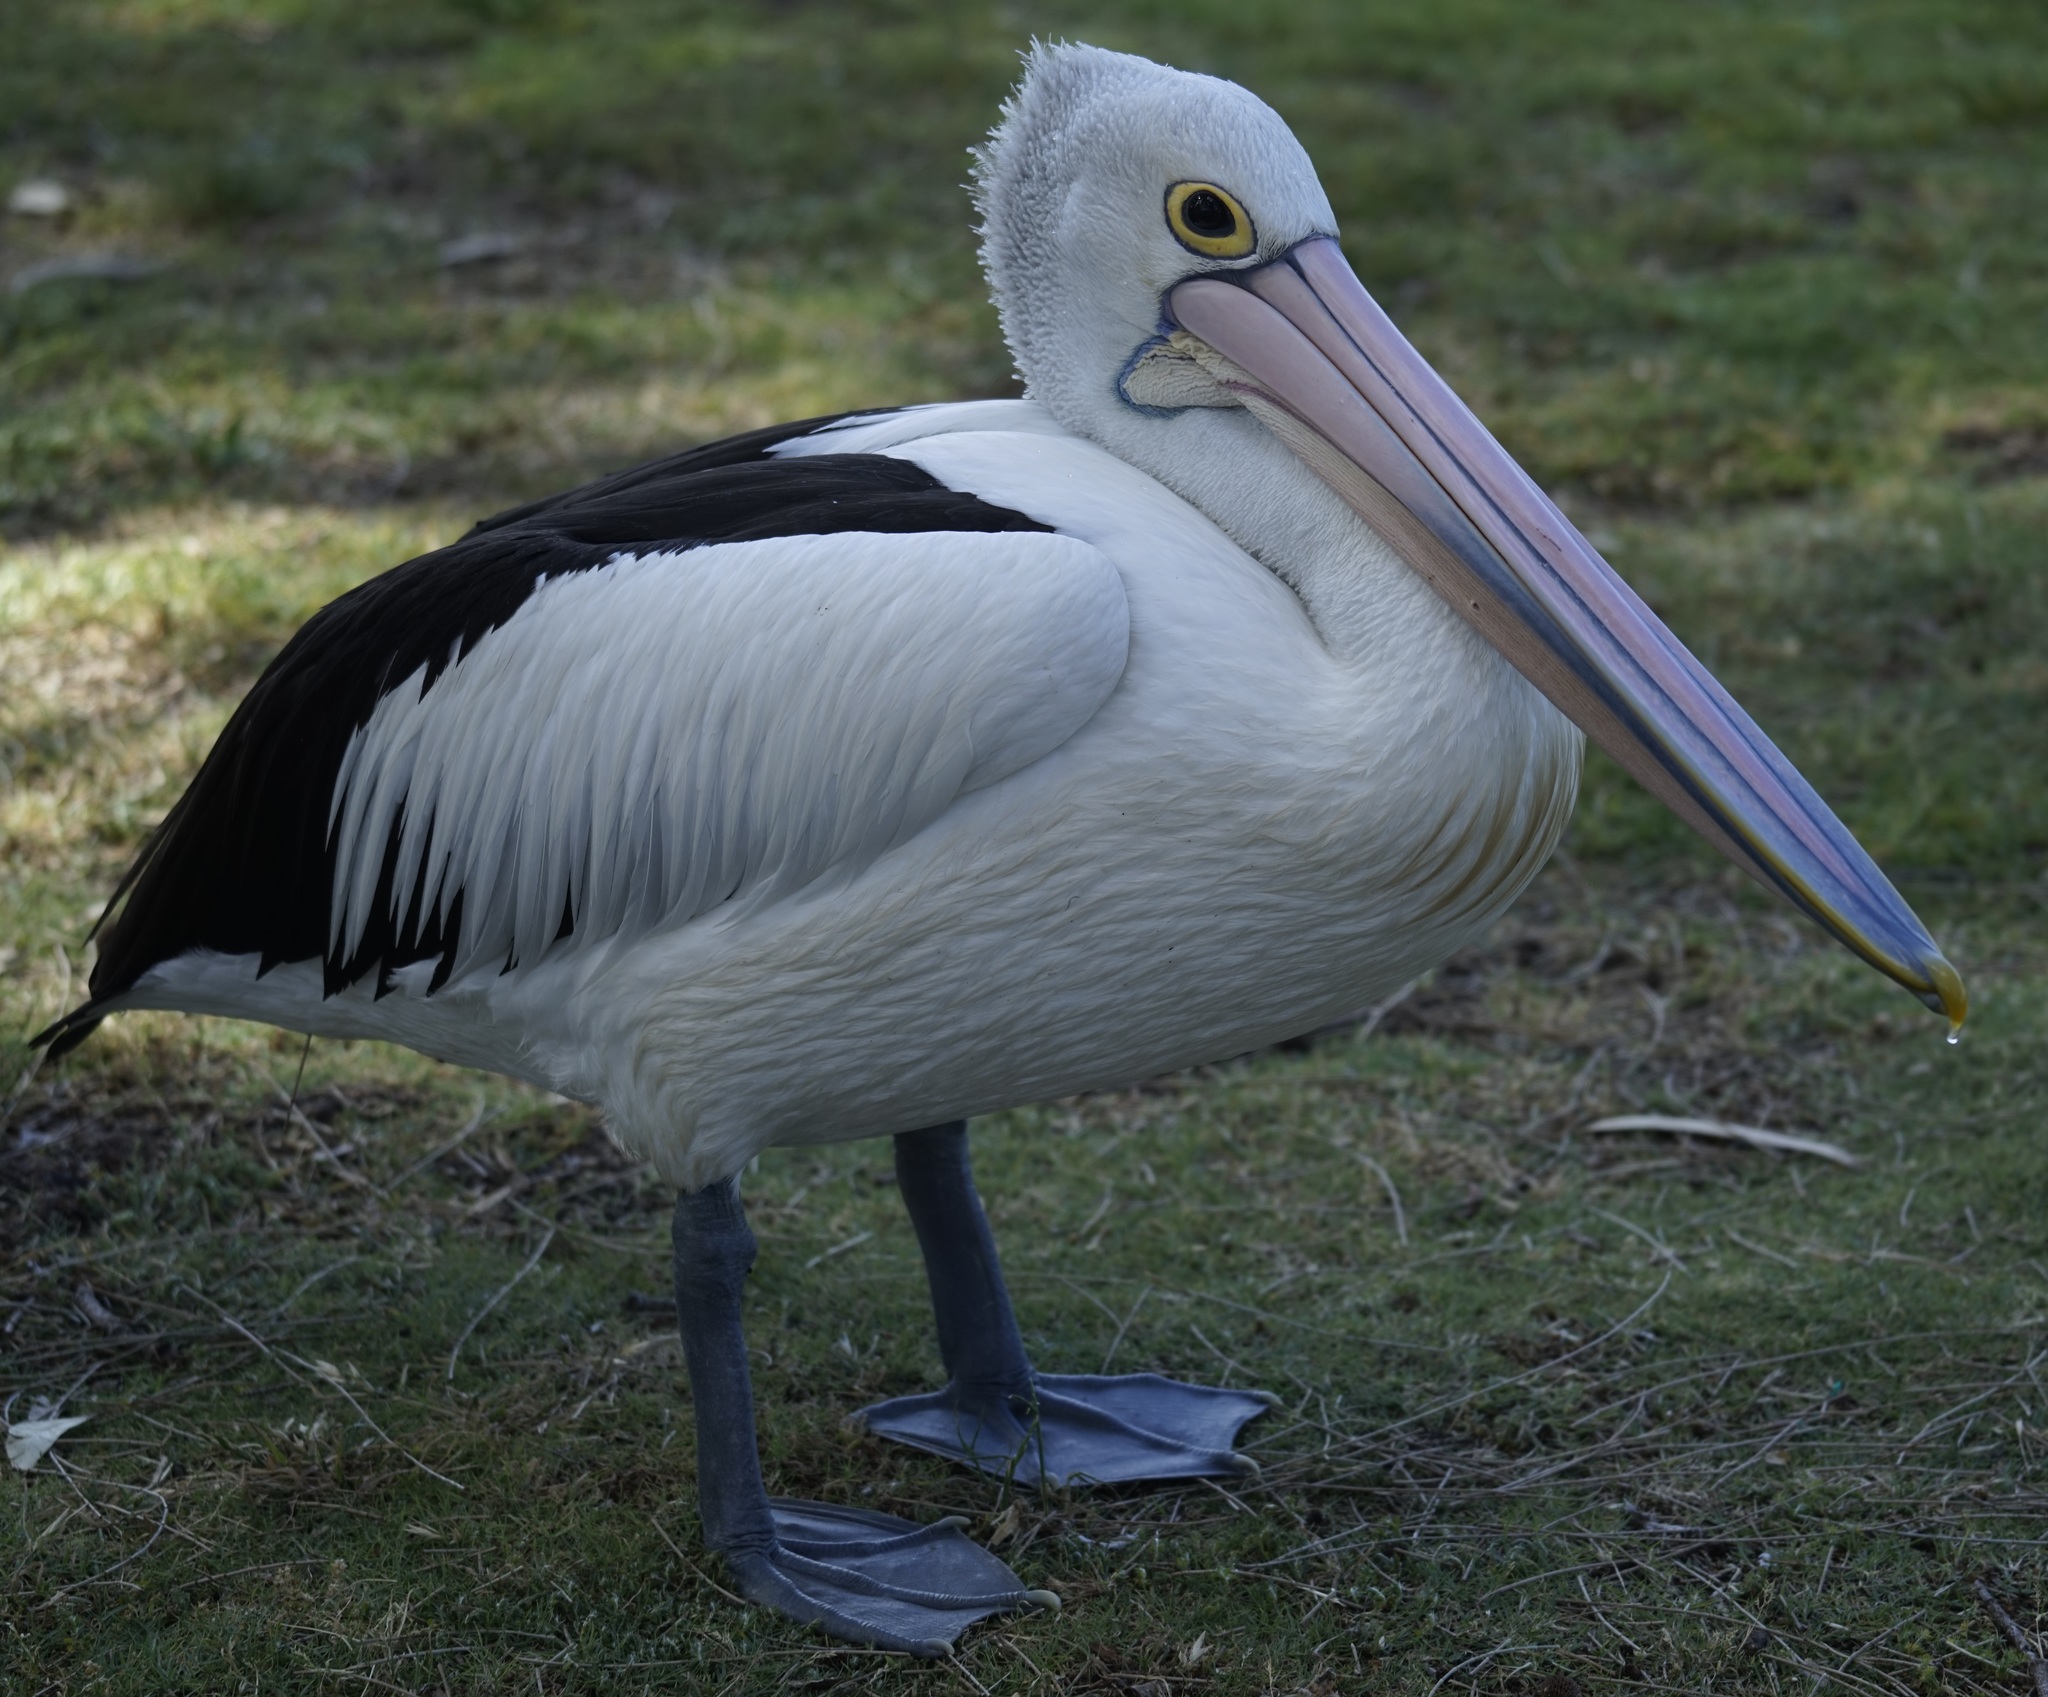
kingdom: Animalia
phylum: Chordata
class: Aves
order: Pelecaniformes
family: Pelecanidae
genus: Pelecanus
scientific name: Pelecanus conspicillatus
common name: Australian pelican
